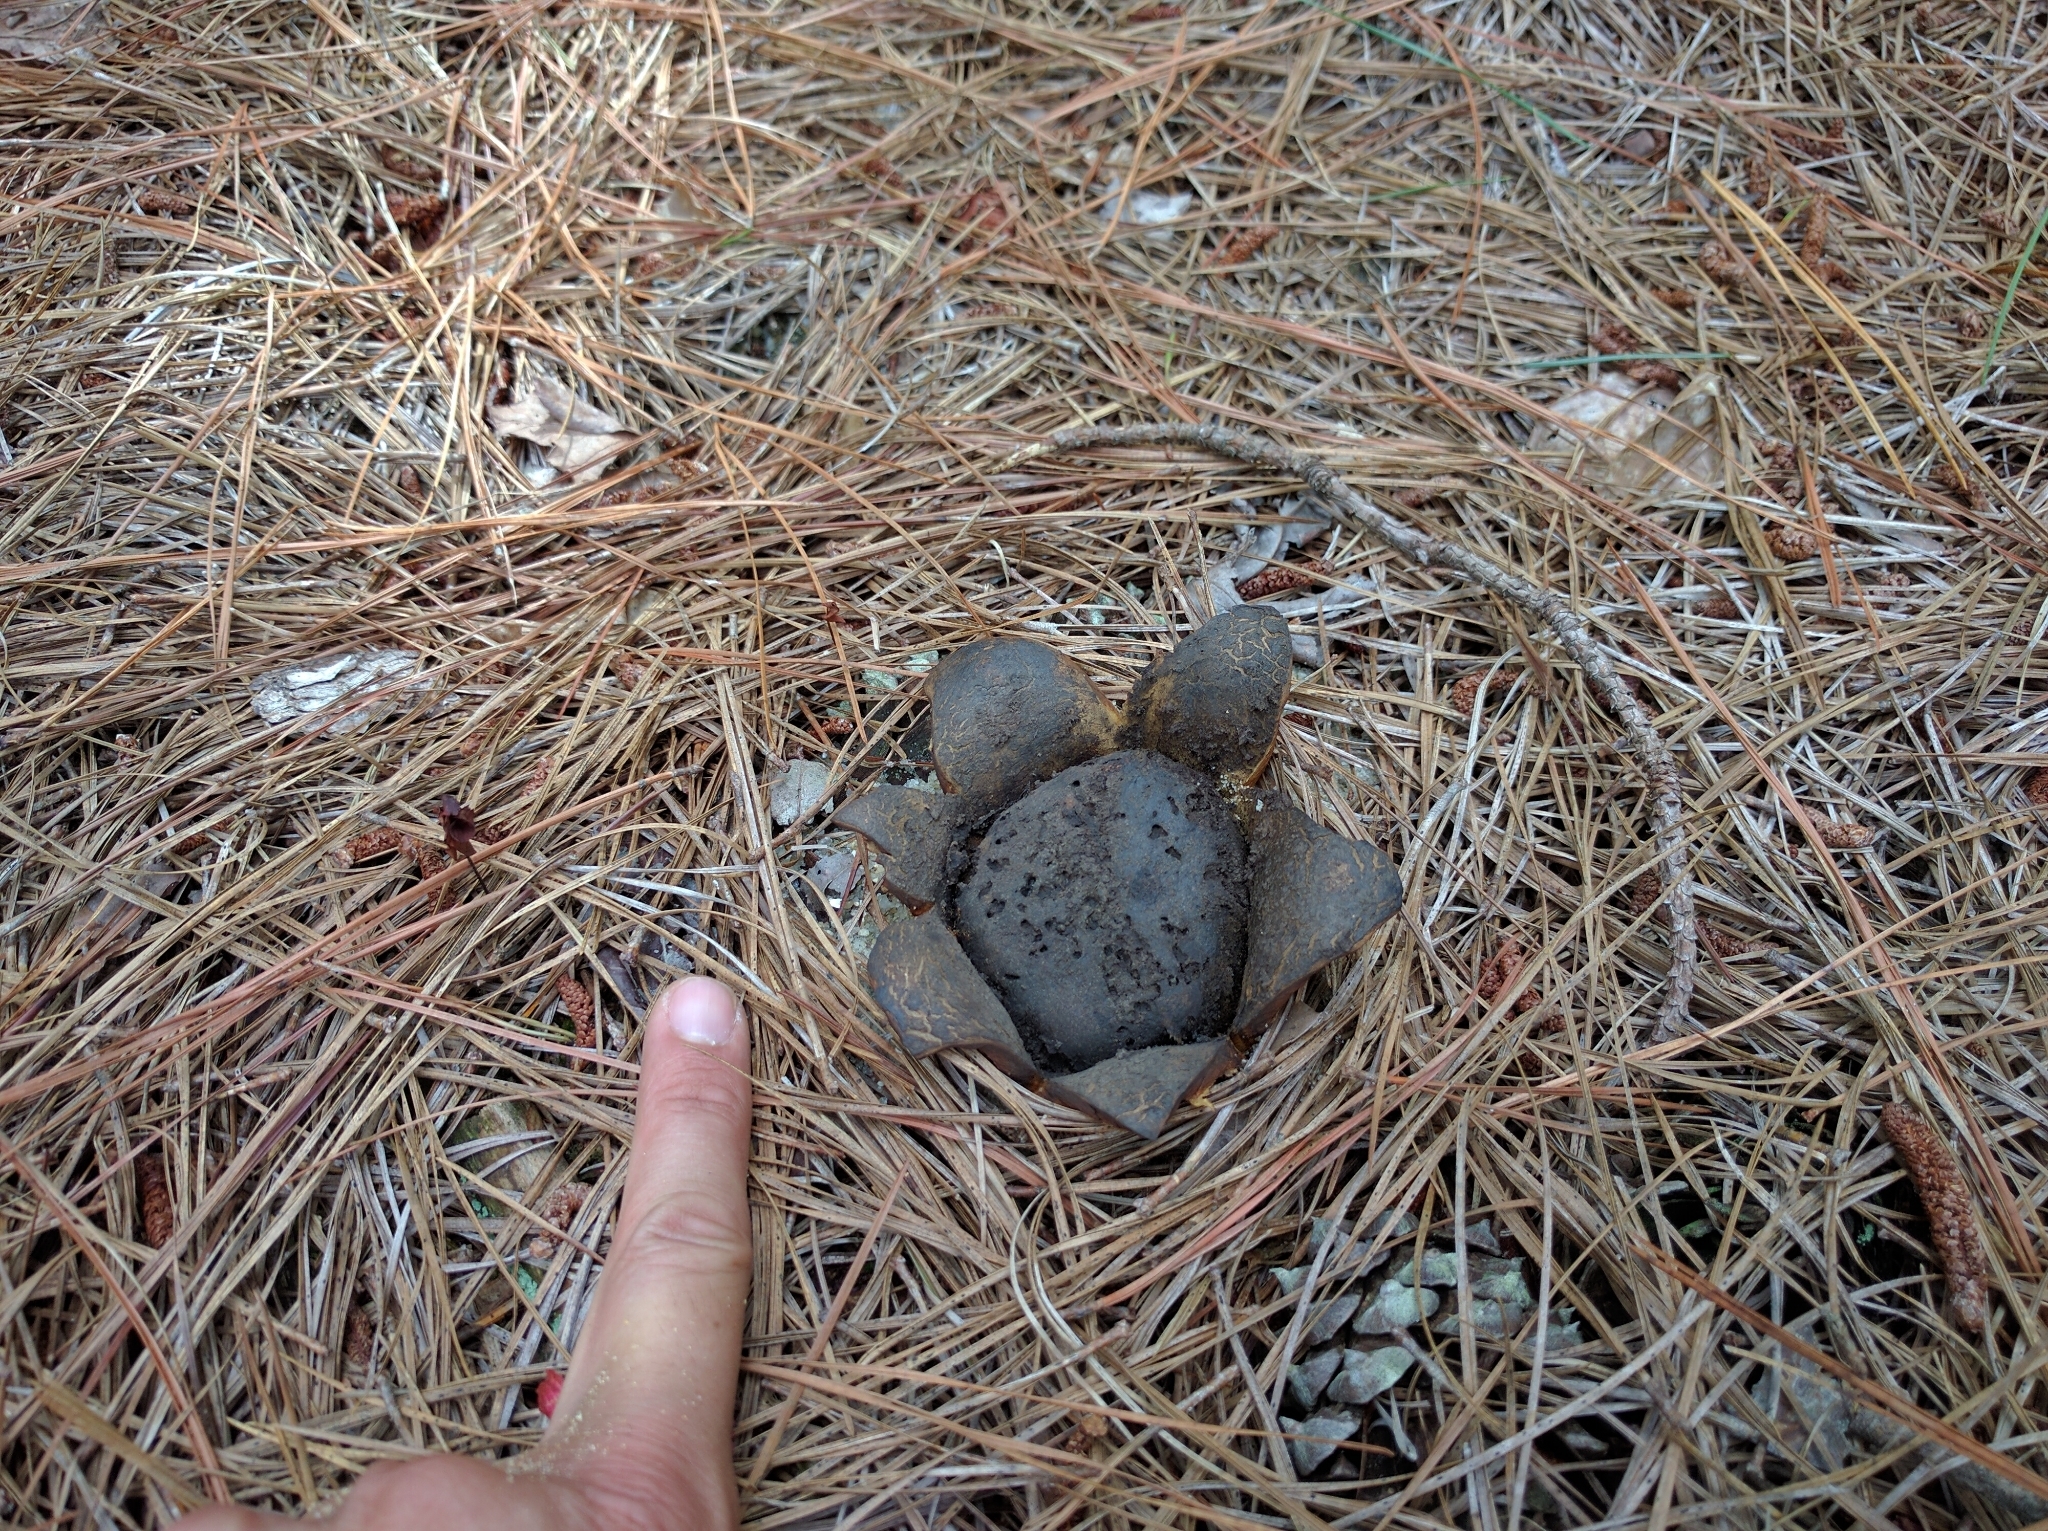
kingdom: Fungi
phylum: Basidiomycota
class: Agaricomycetes
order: Boletales
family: Sclerodermataceae
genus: Scleroderma
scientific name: Scleroderma polyrhizum
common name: Many-rooted earthball
